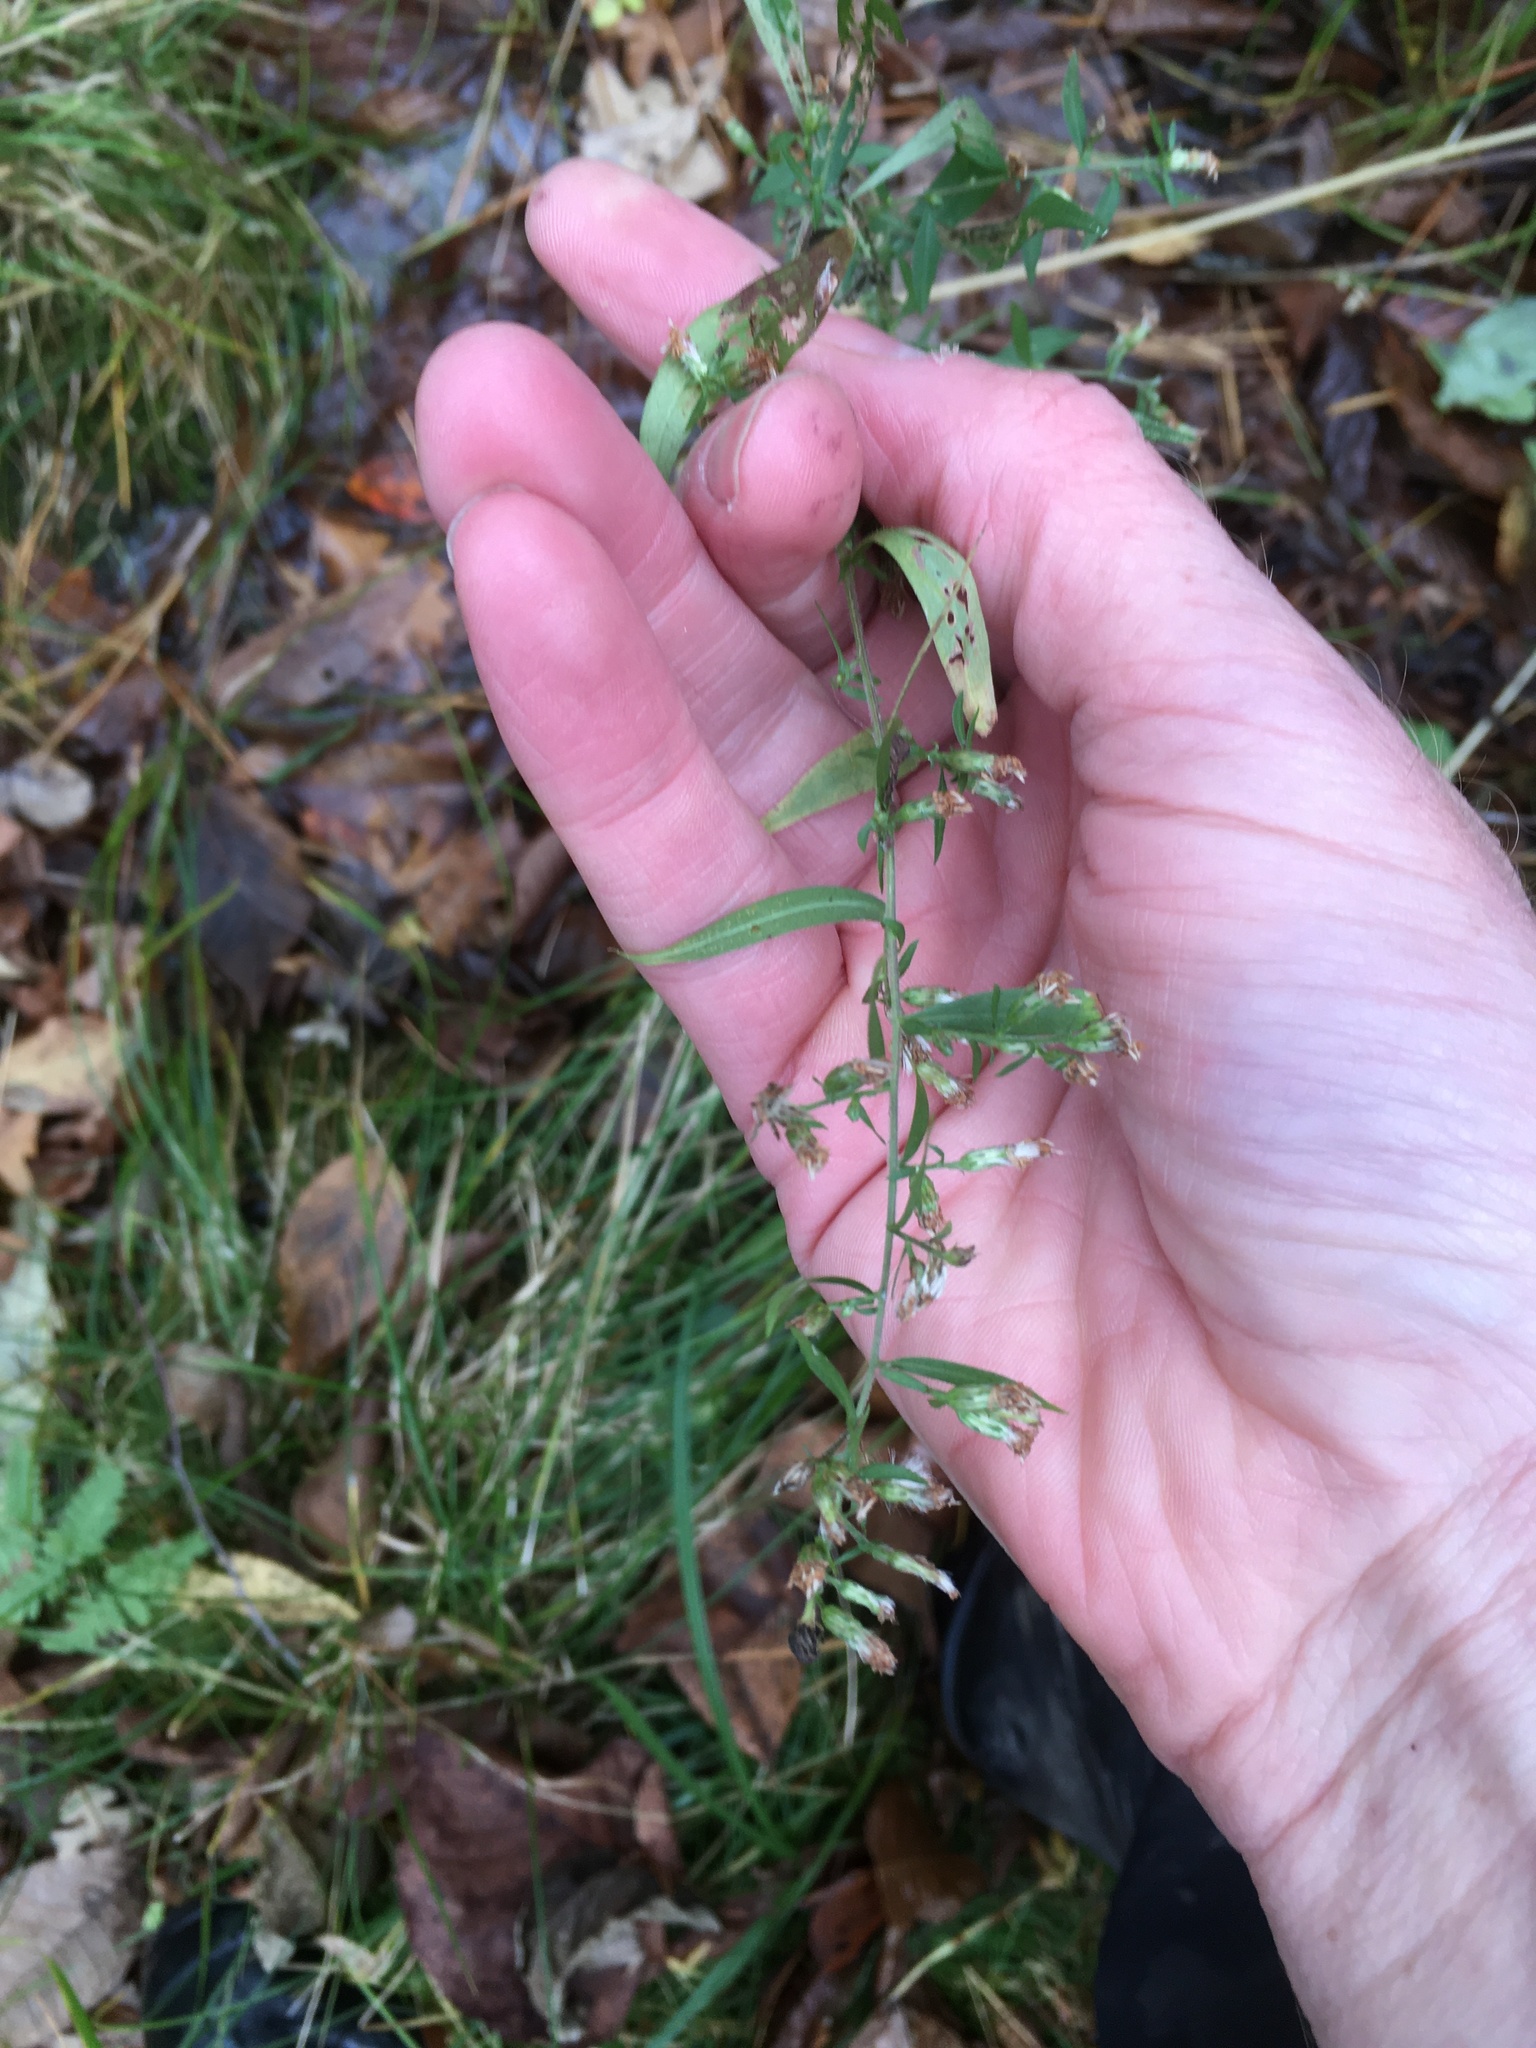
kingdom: Plantae
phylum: Tracheophyta
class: Magnoliopsida
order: Asterales
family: Asteraceae
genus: Symphyotrichum
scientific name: Symphyotrichum lateriflorum
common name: Calico aster
